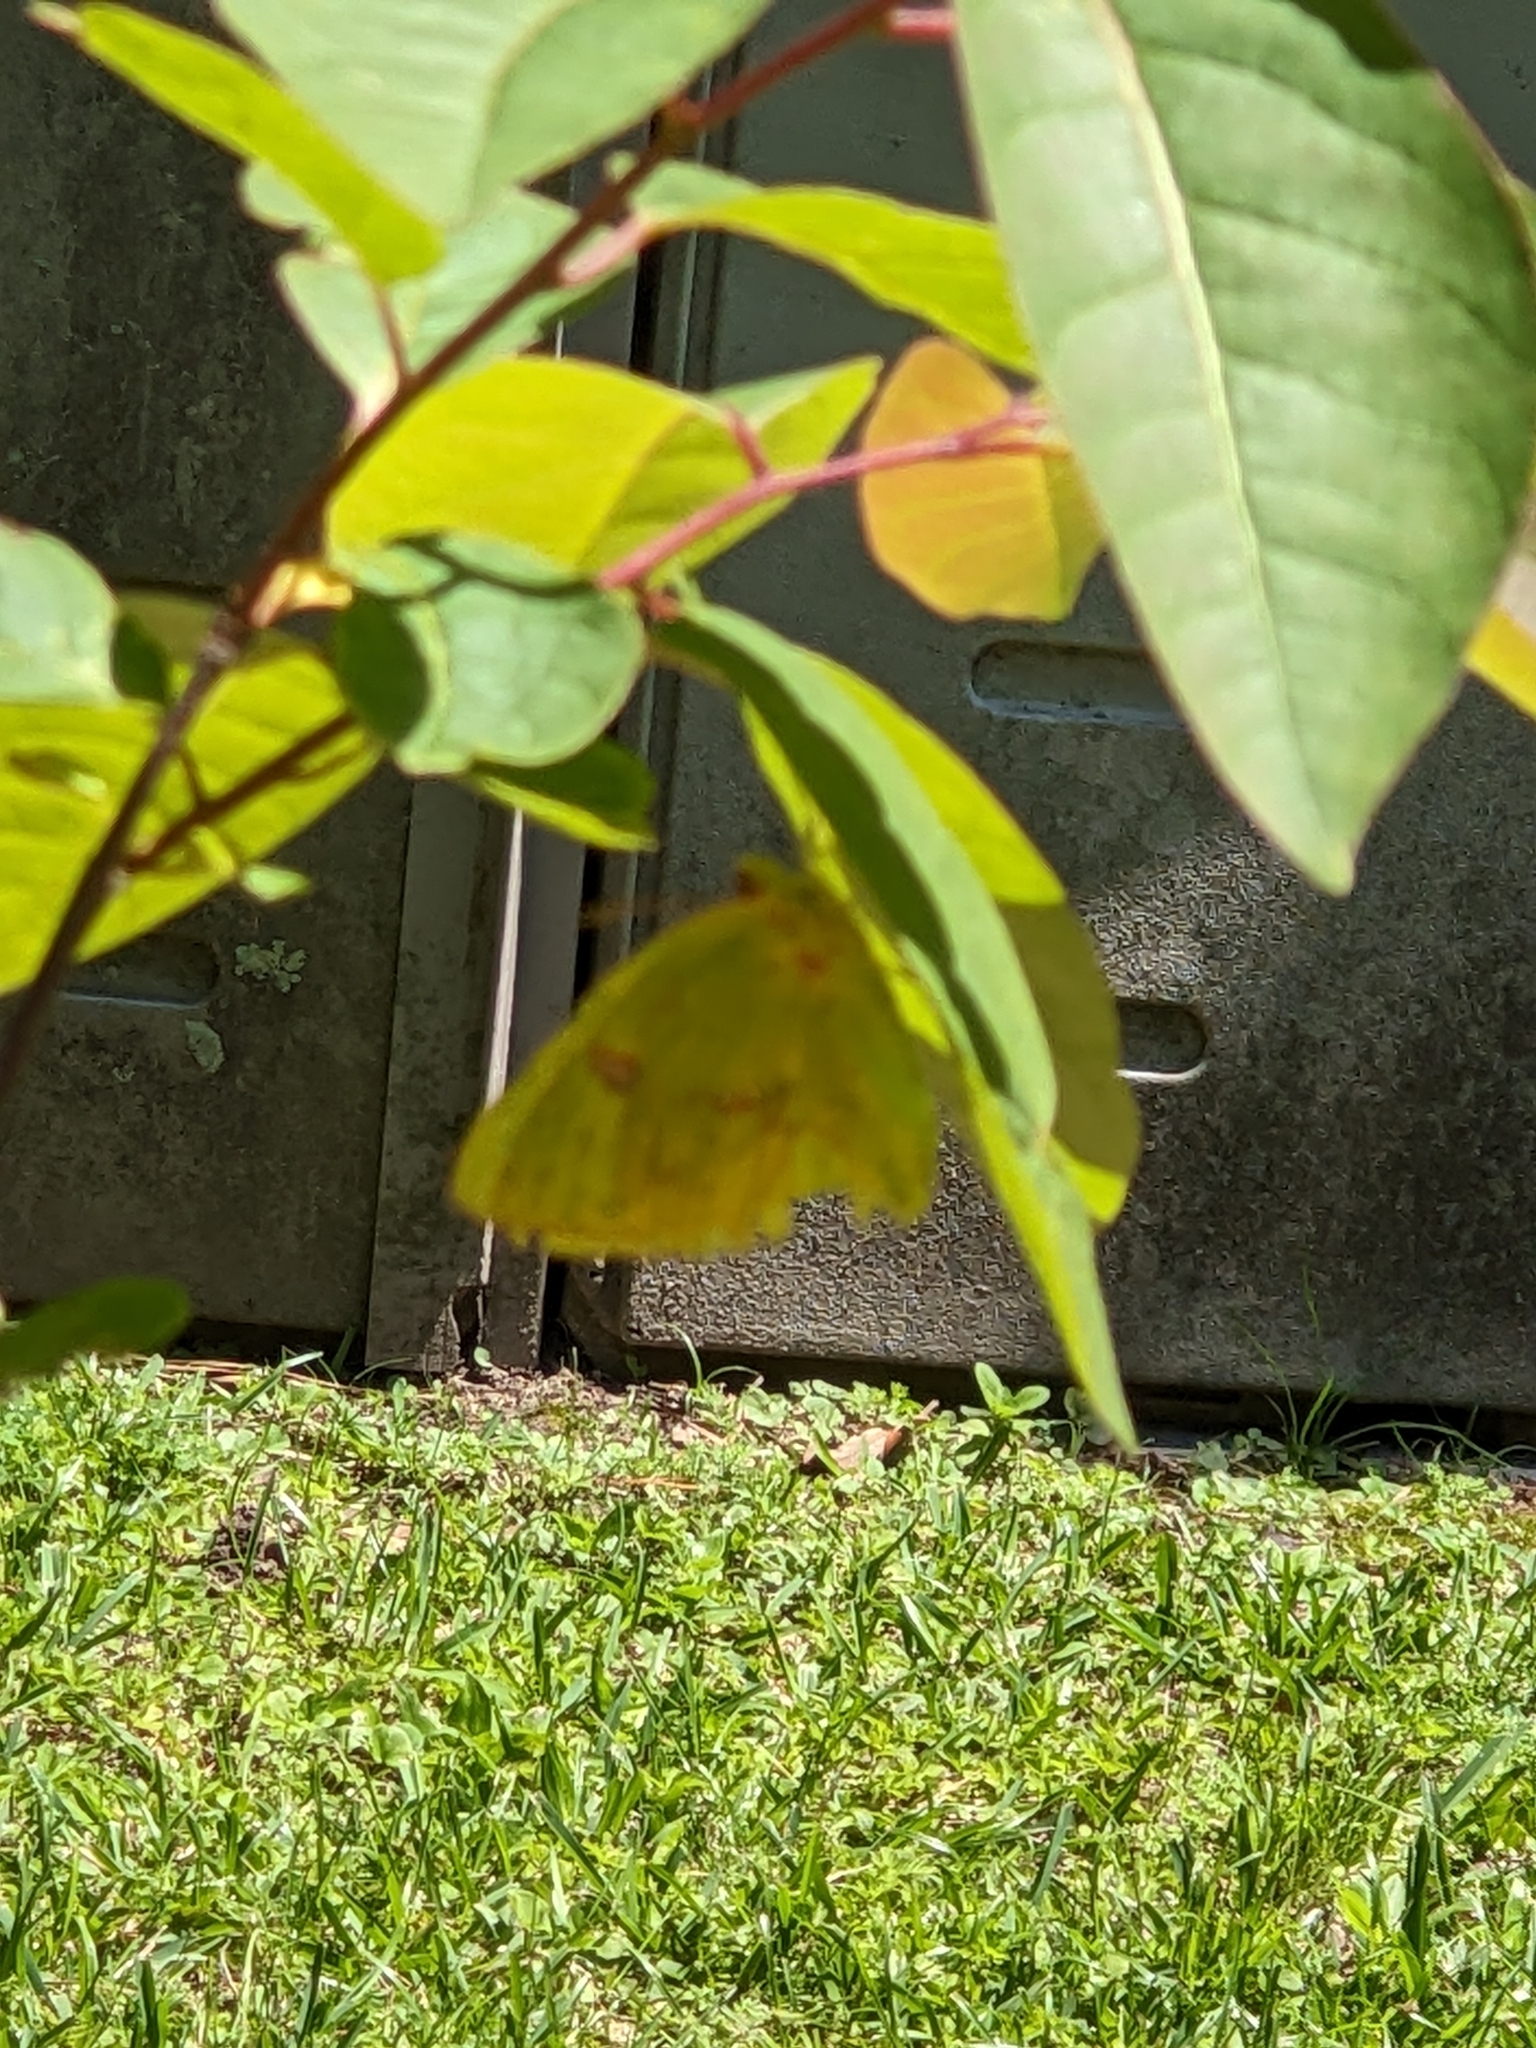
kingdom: Animalia
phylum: Arthropoda
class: Insecta
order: Lepidoptera
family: Pieridae
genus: Phoebis
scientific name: Phoebis sennae
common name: Cloudless sulphur
